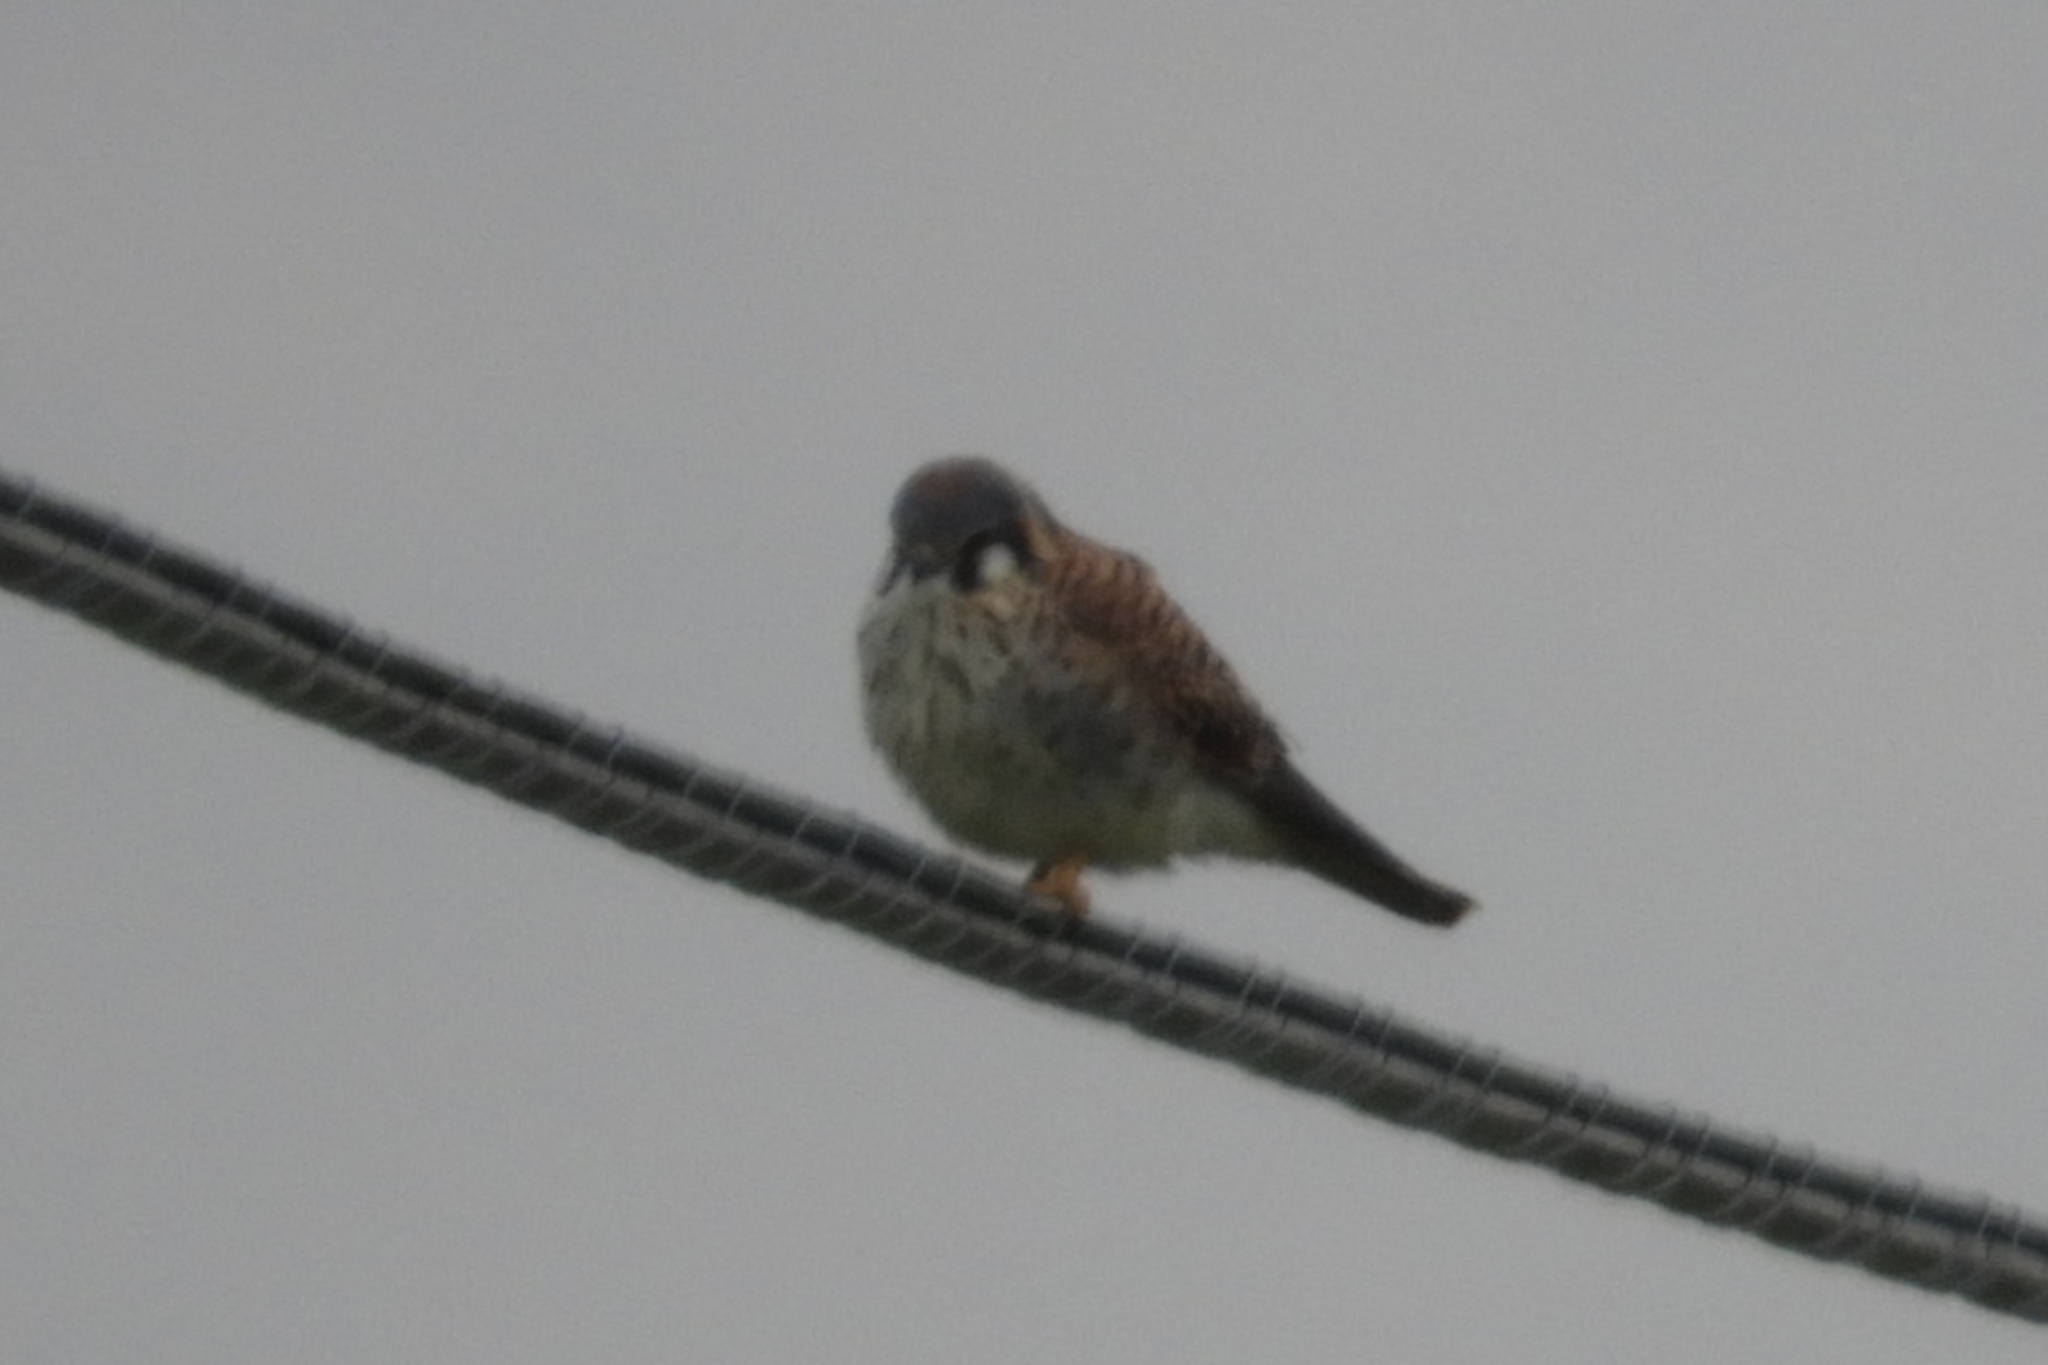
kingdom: Animalia
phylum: Chordata
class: Aves
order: Falconiformes
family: Falconidae
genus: Falco
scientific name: Falco sparverius
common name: American kestrel
